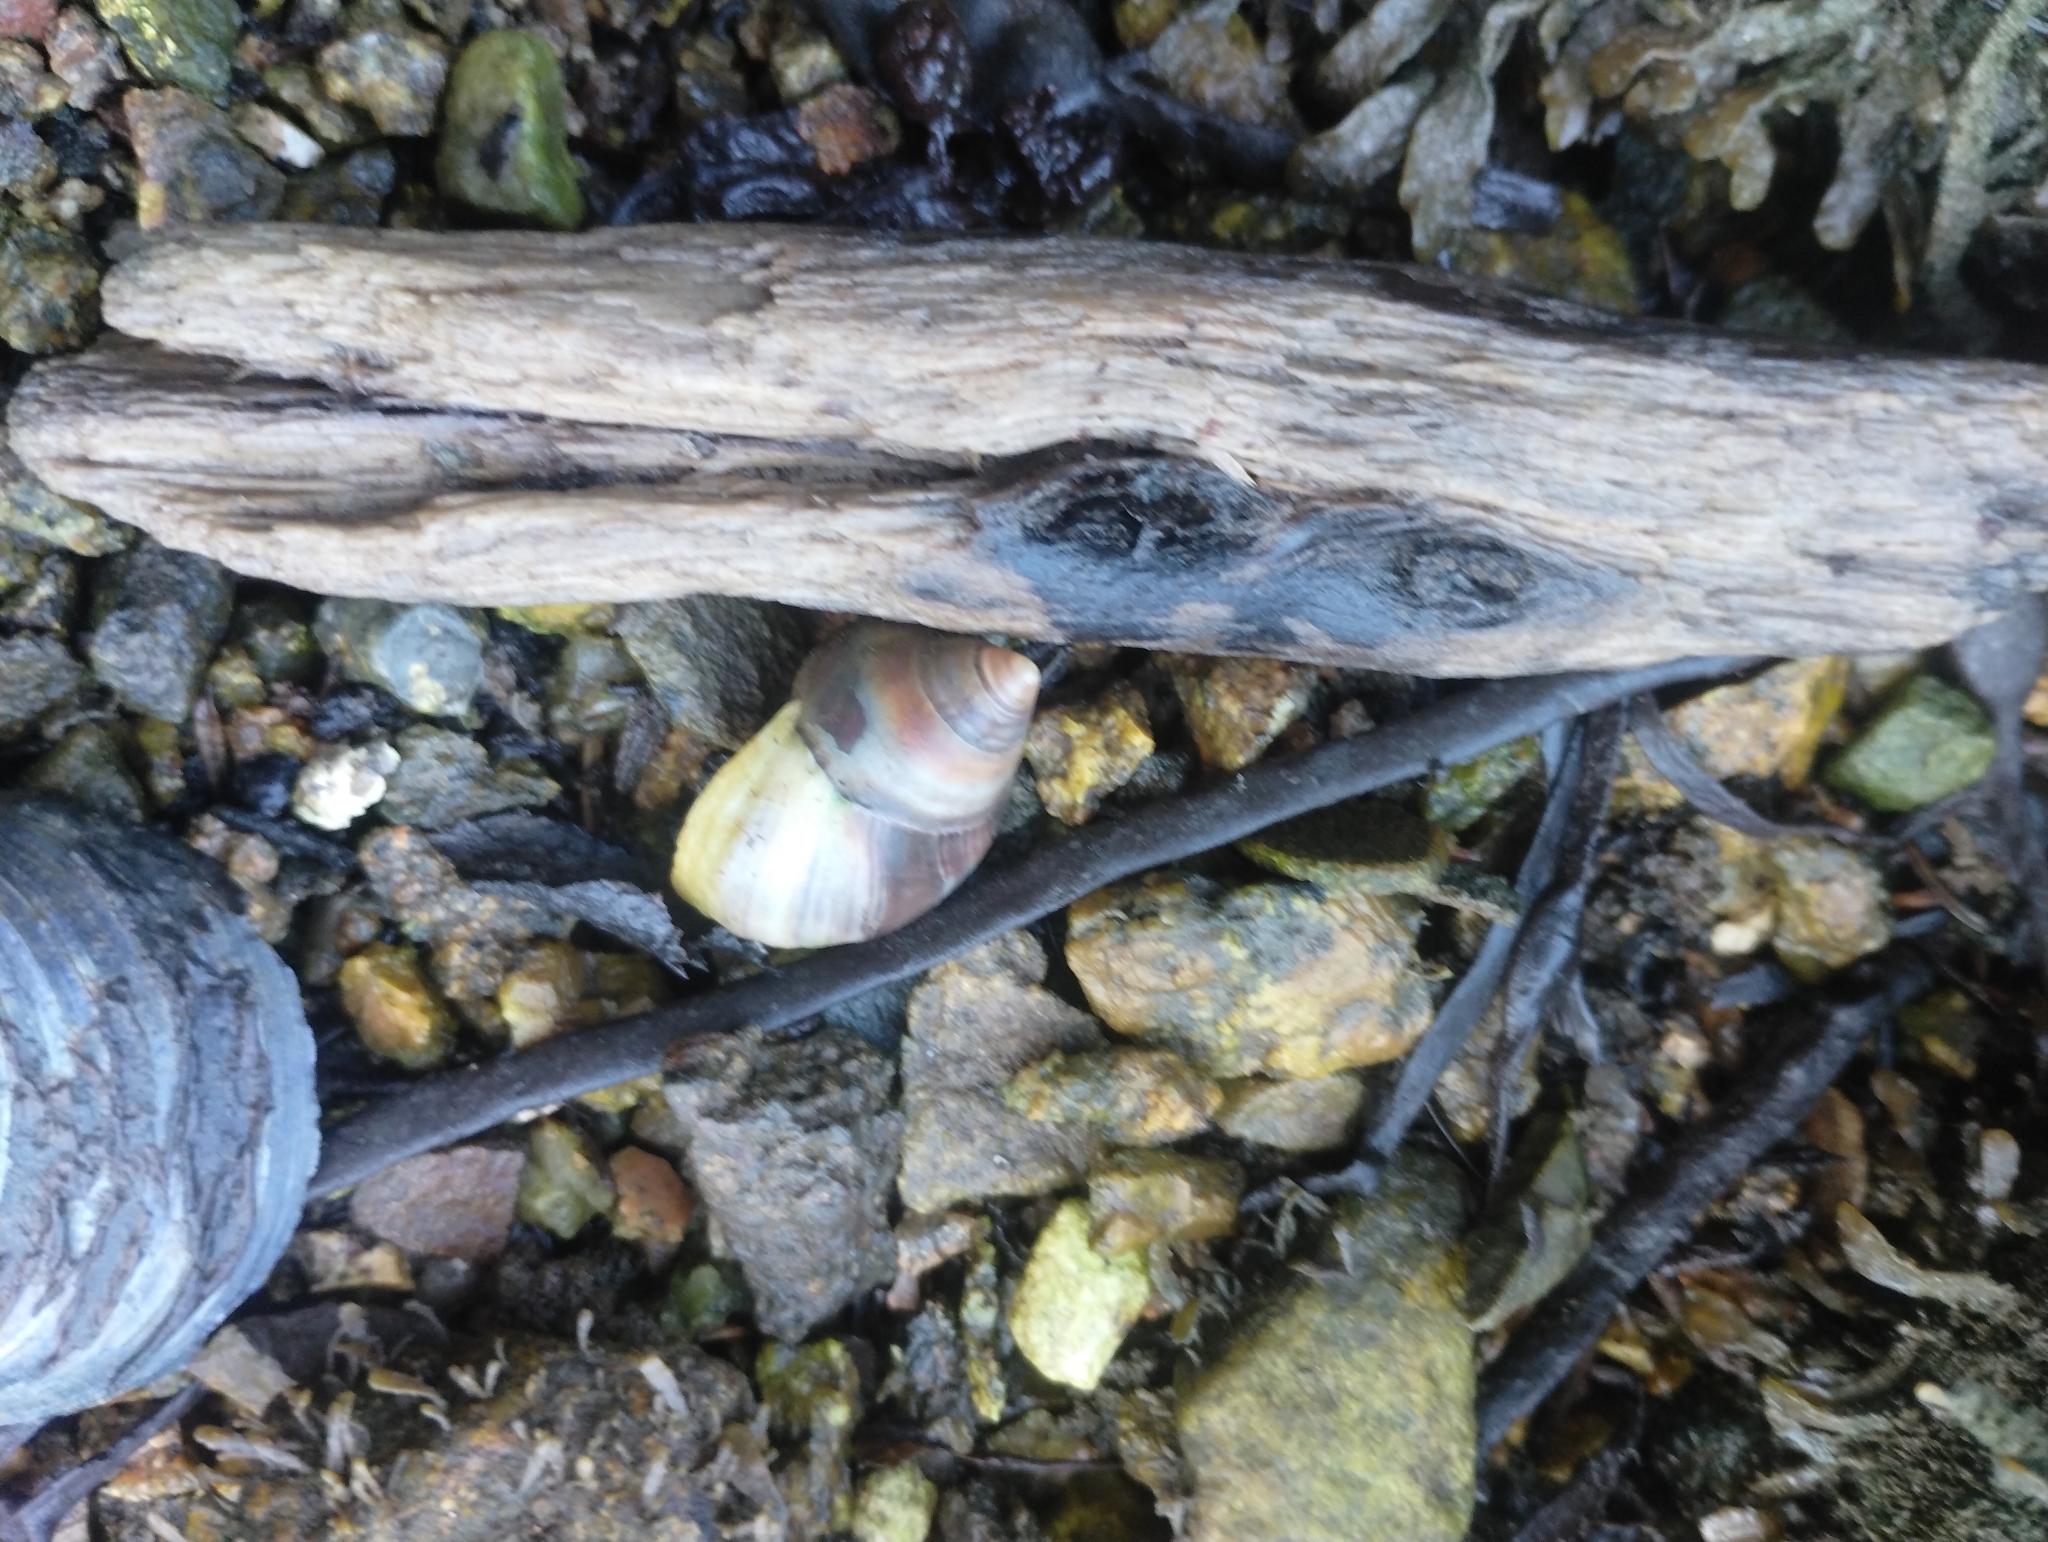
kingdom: Animalia
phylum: Mollusca
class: Gastropoda
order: Littorinimorpha
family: Littorinidae
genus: Littorina
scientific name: Littorina littorea
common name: Common periwinkle
